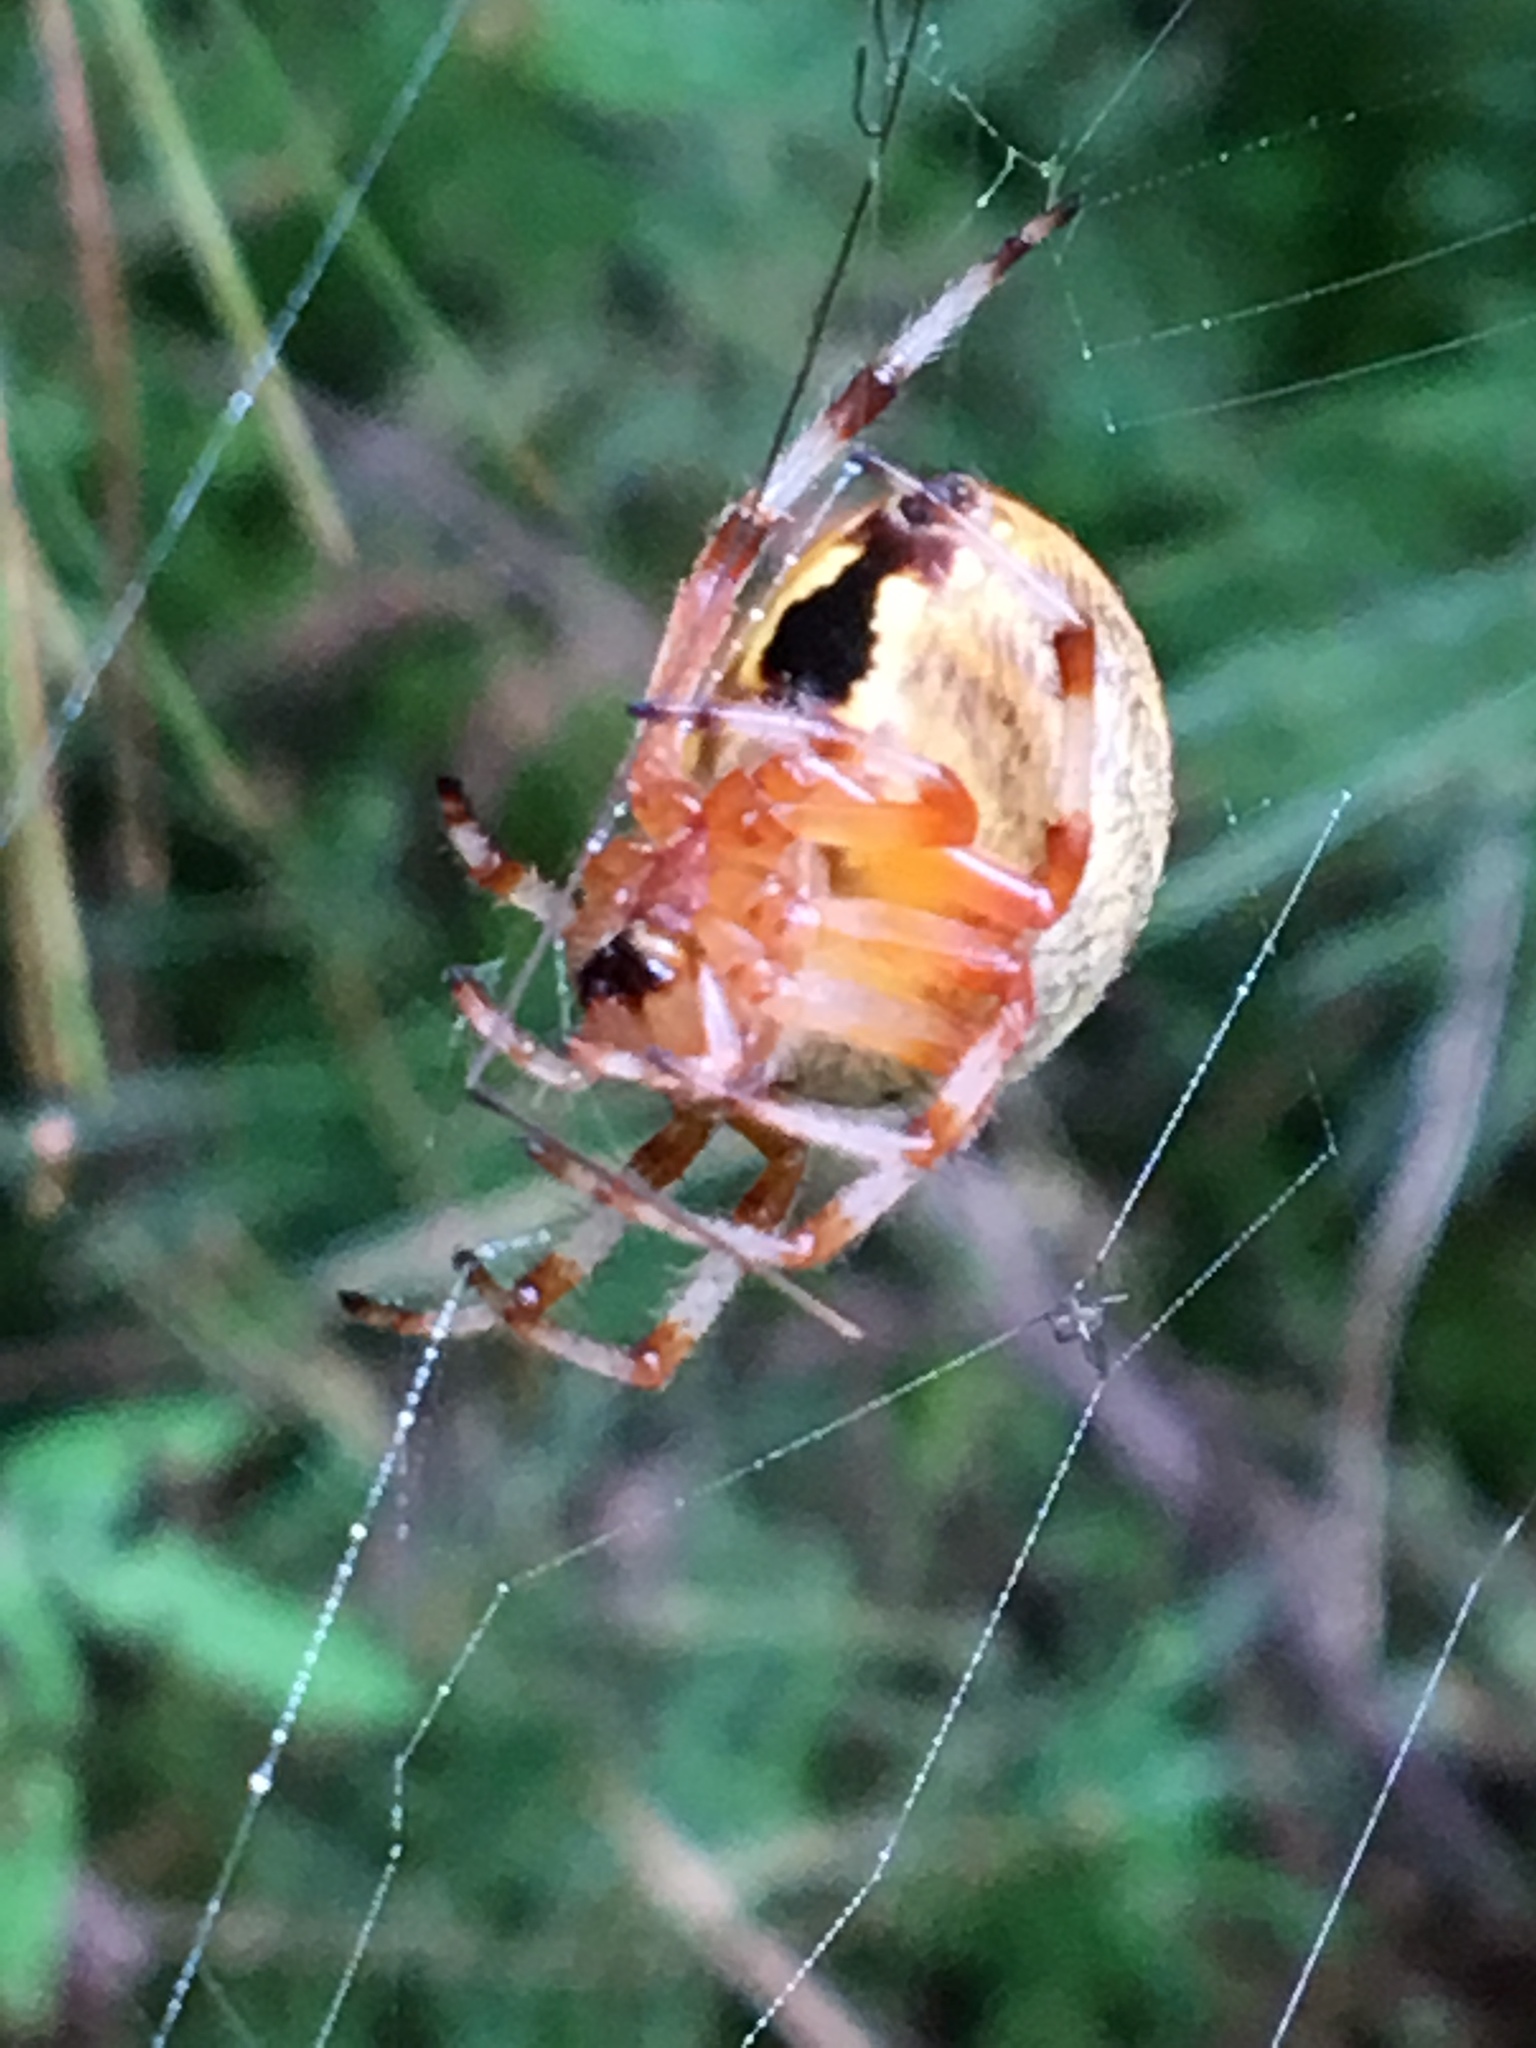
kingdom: Animalia
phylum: Arthropoda
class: Arachnida
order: Araneae
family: Araneidae
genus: Araneus
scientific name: Araneus marmoreus
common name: Marbled orbweaver
